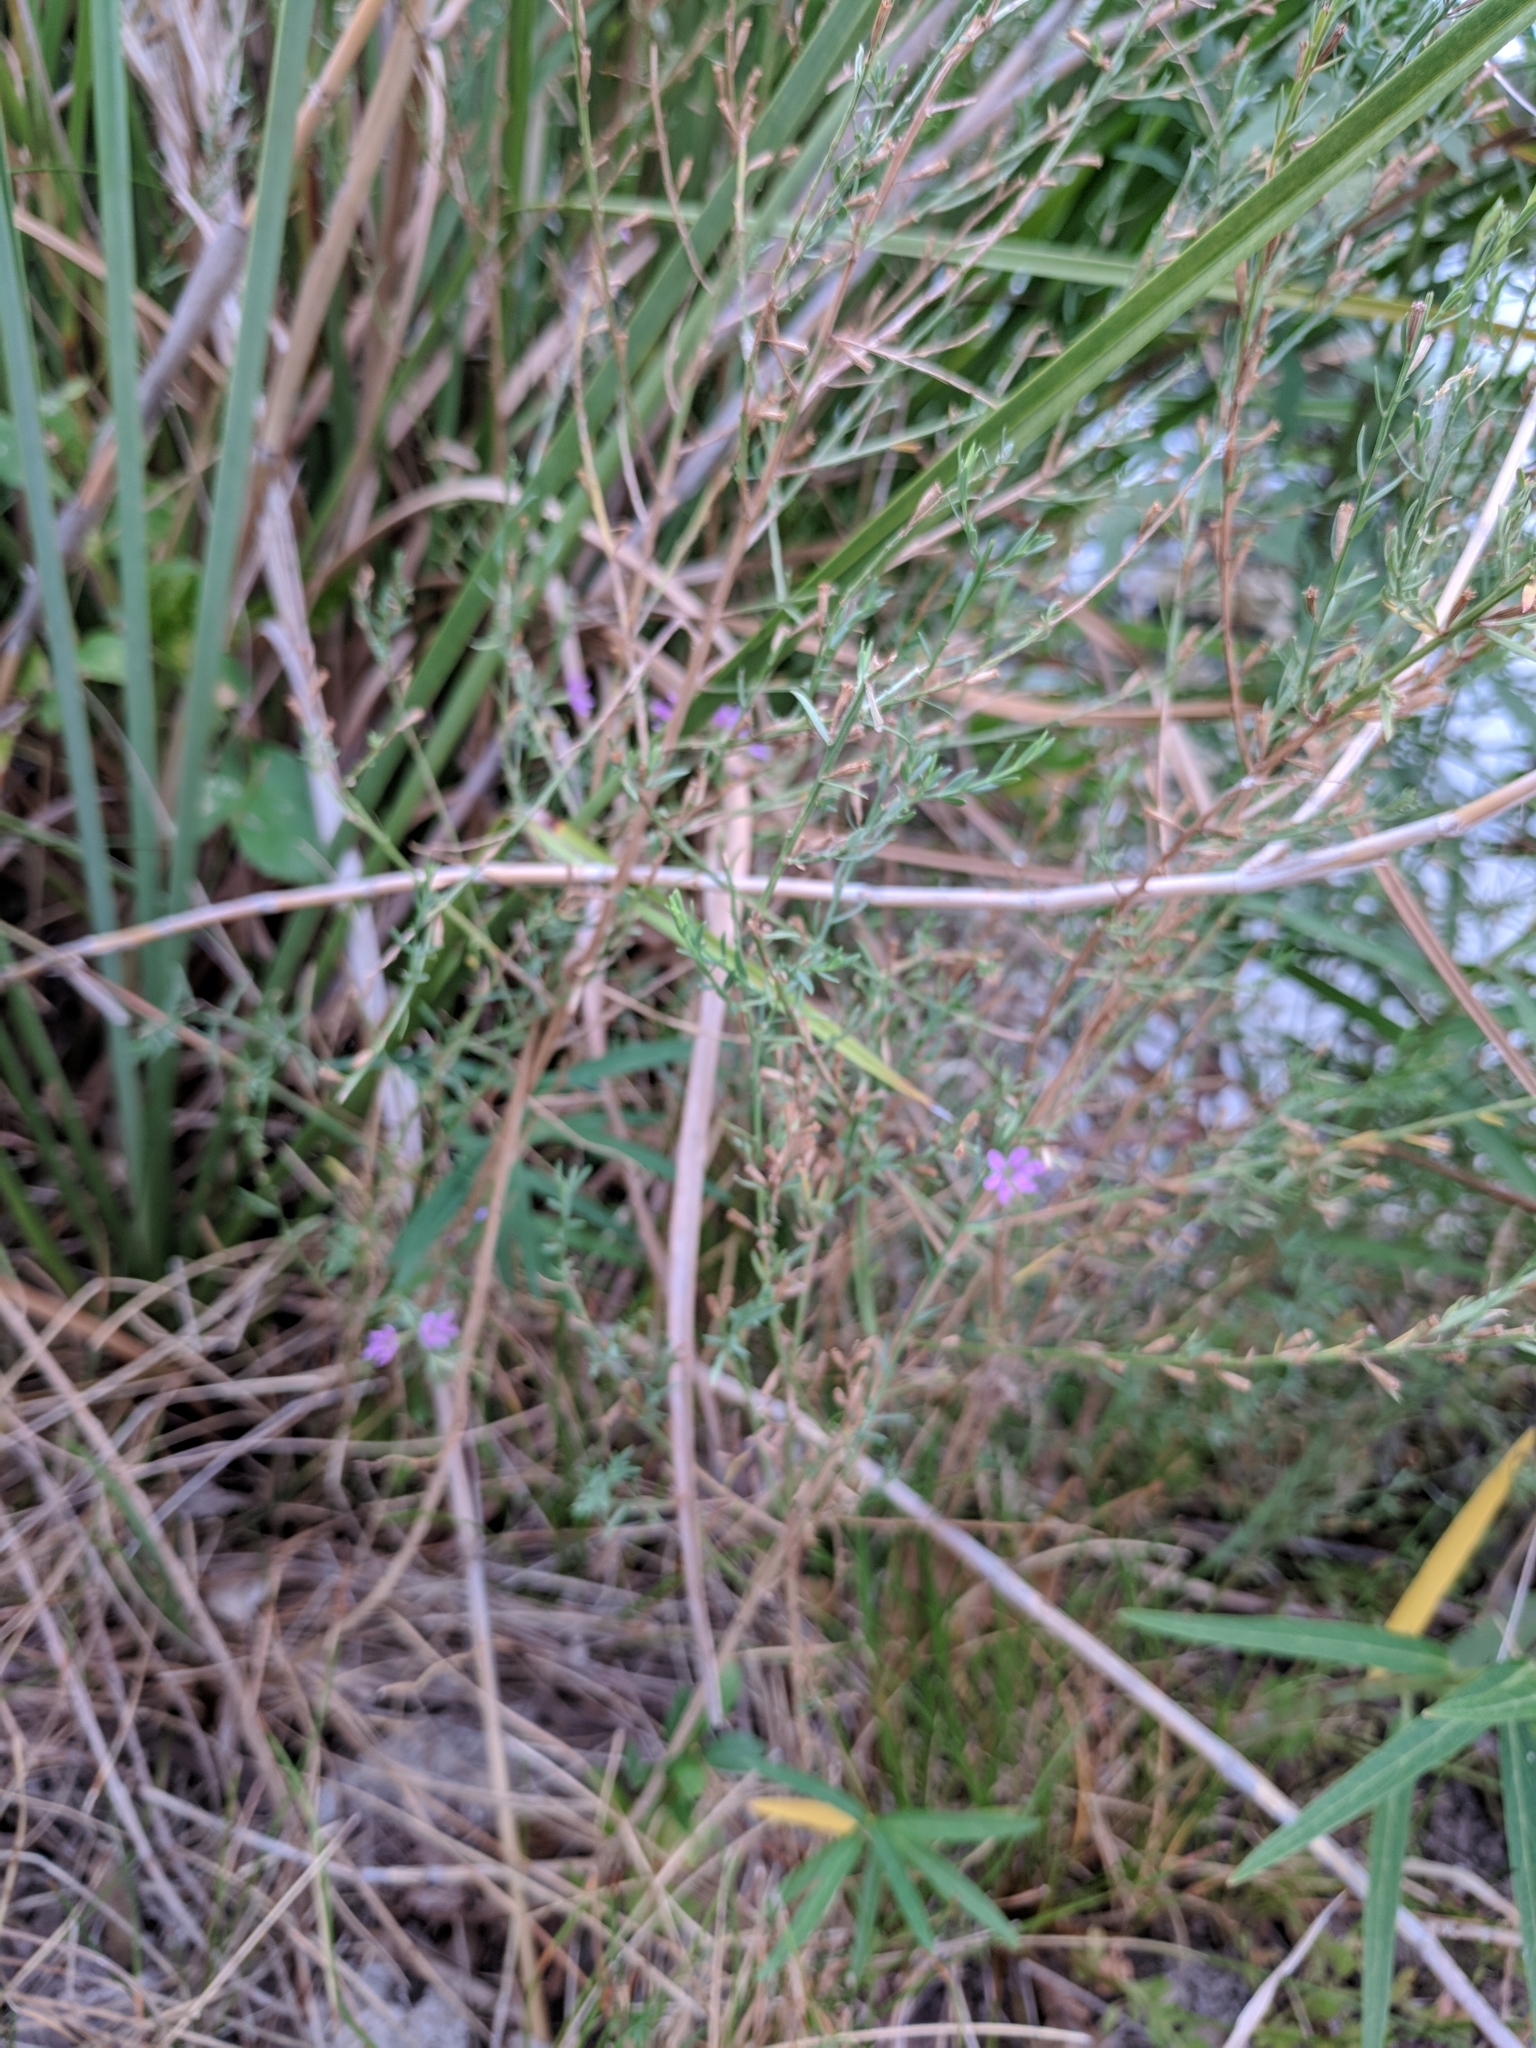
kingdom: Plantae
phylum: Tracheophyta
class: Magnoliopsida
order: Myrtales
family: Lythraceae
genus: Lythrum
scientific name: Lythrum californicum
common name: California loosestrife
